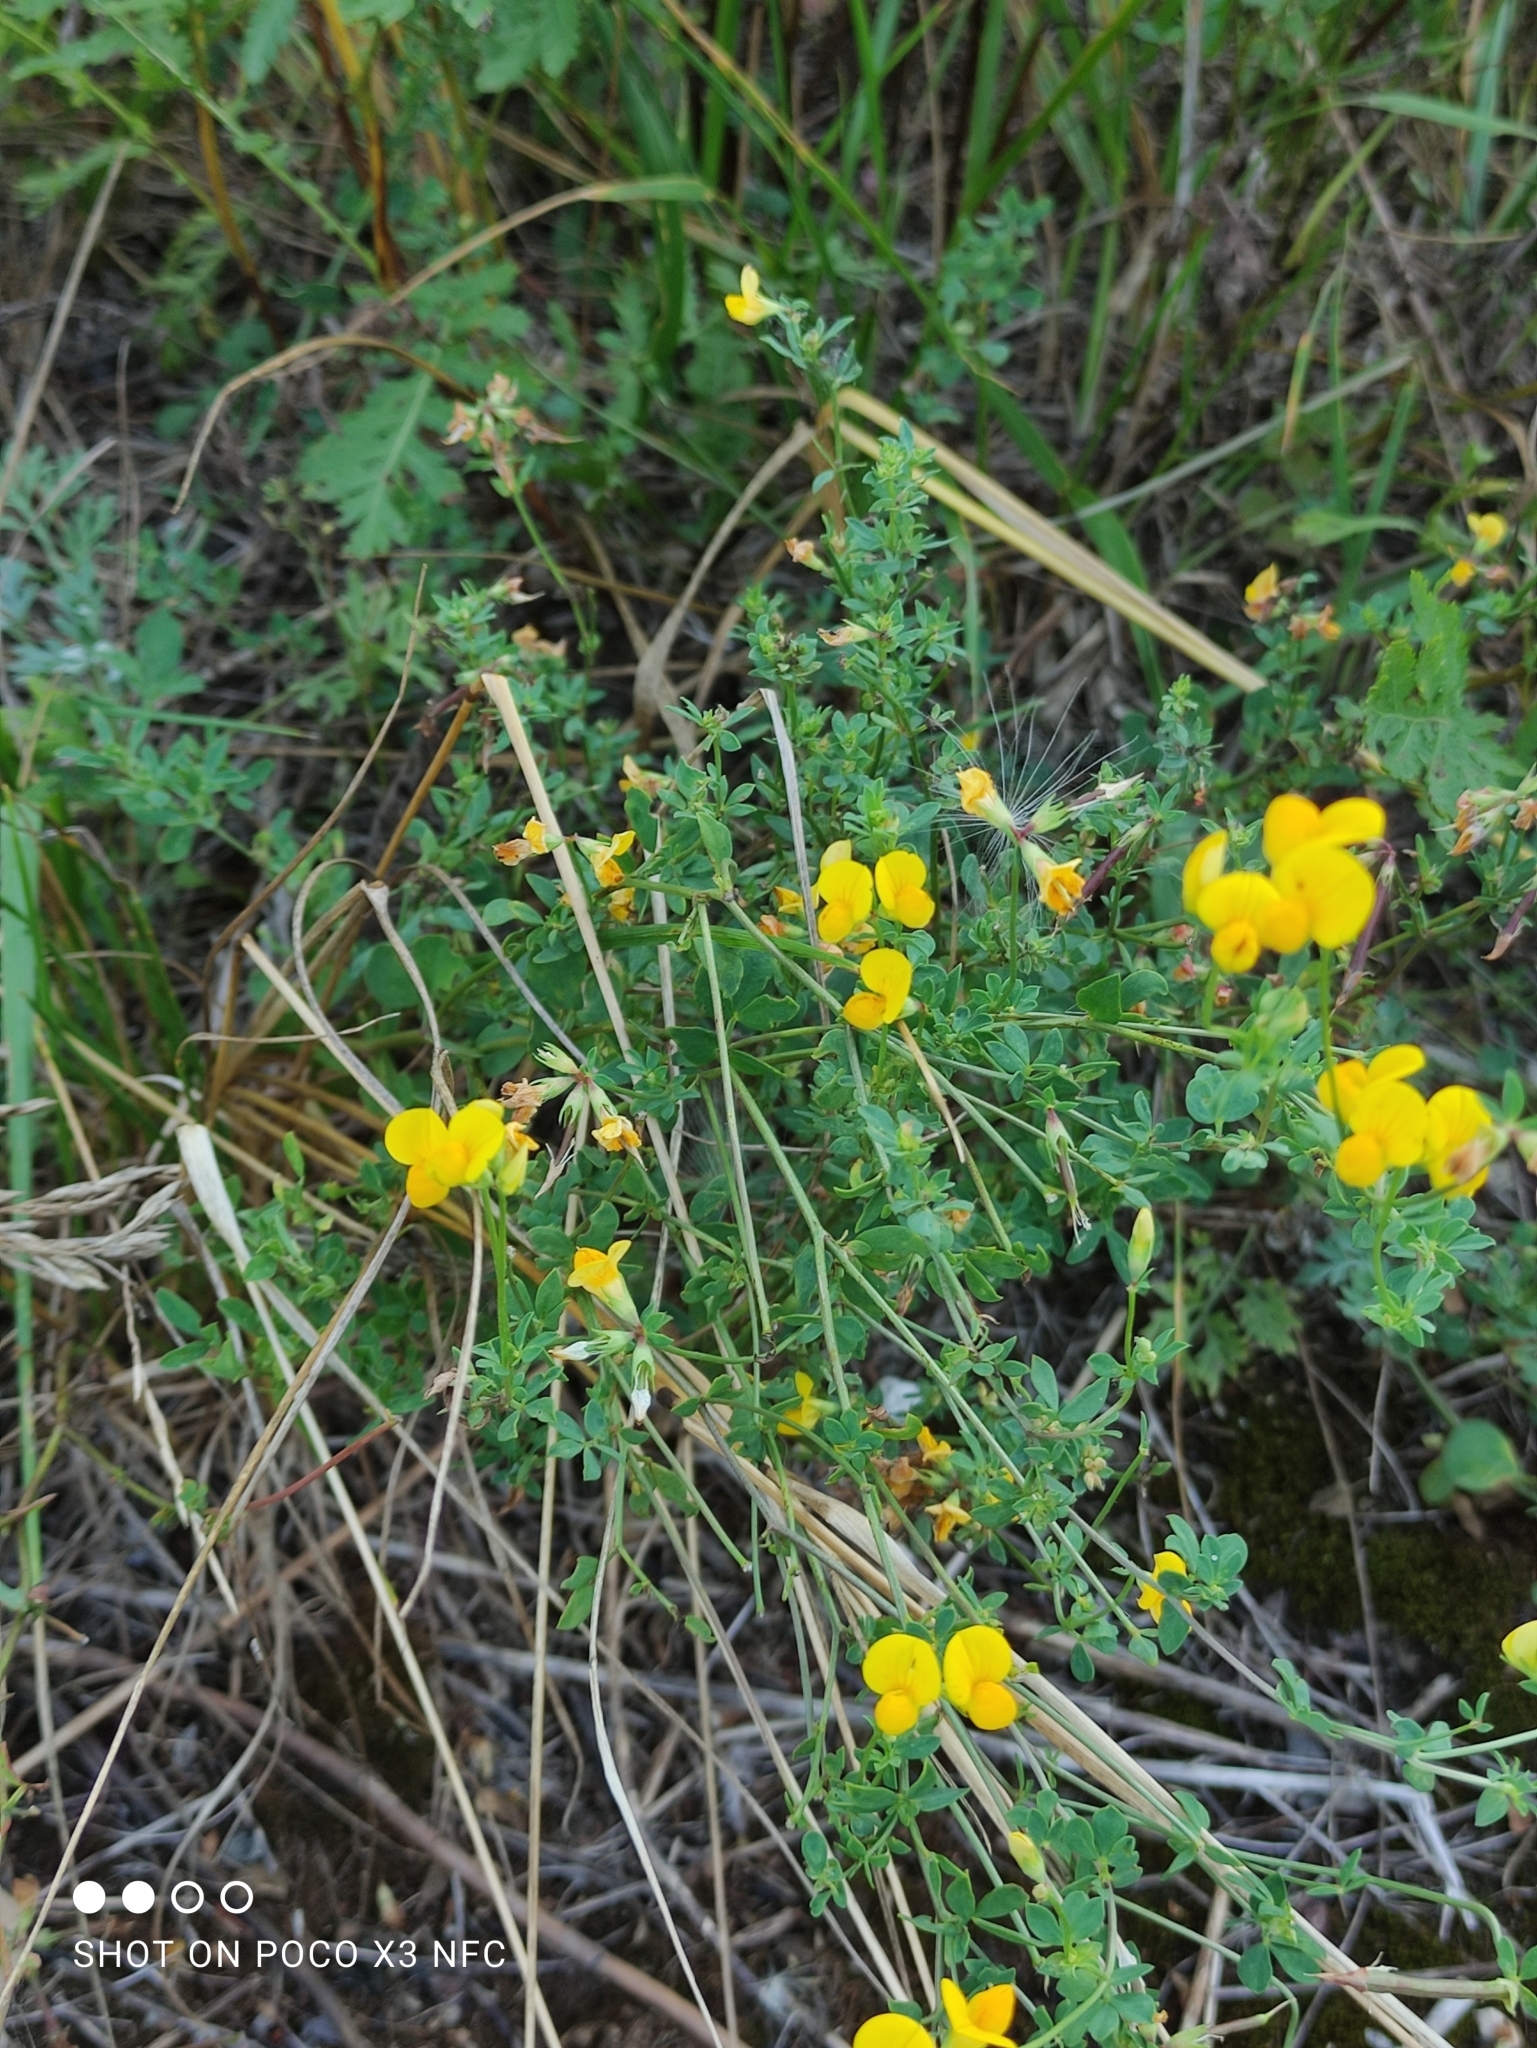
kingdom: Plantae
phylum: Tracheophyta
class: Magnoliopsida
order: Fabales
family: Fabaceae
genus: Lotus
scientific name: Lotus corniculatus
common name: Common bird's-foot-trefoil
